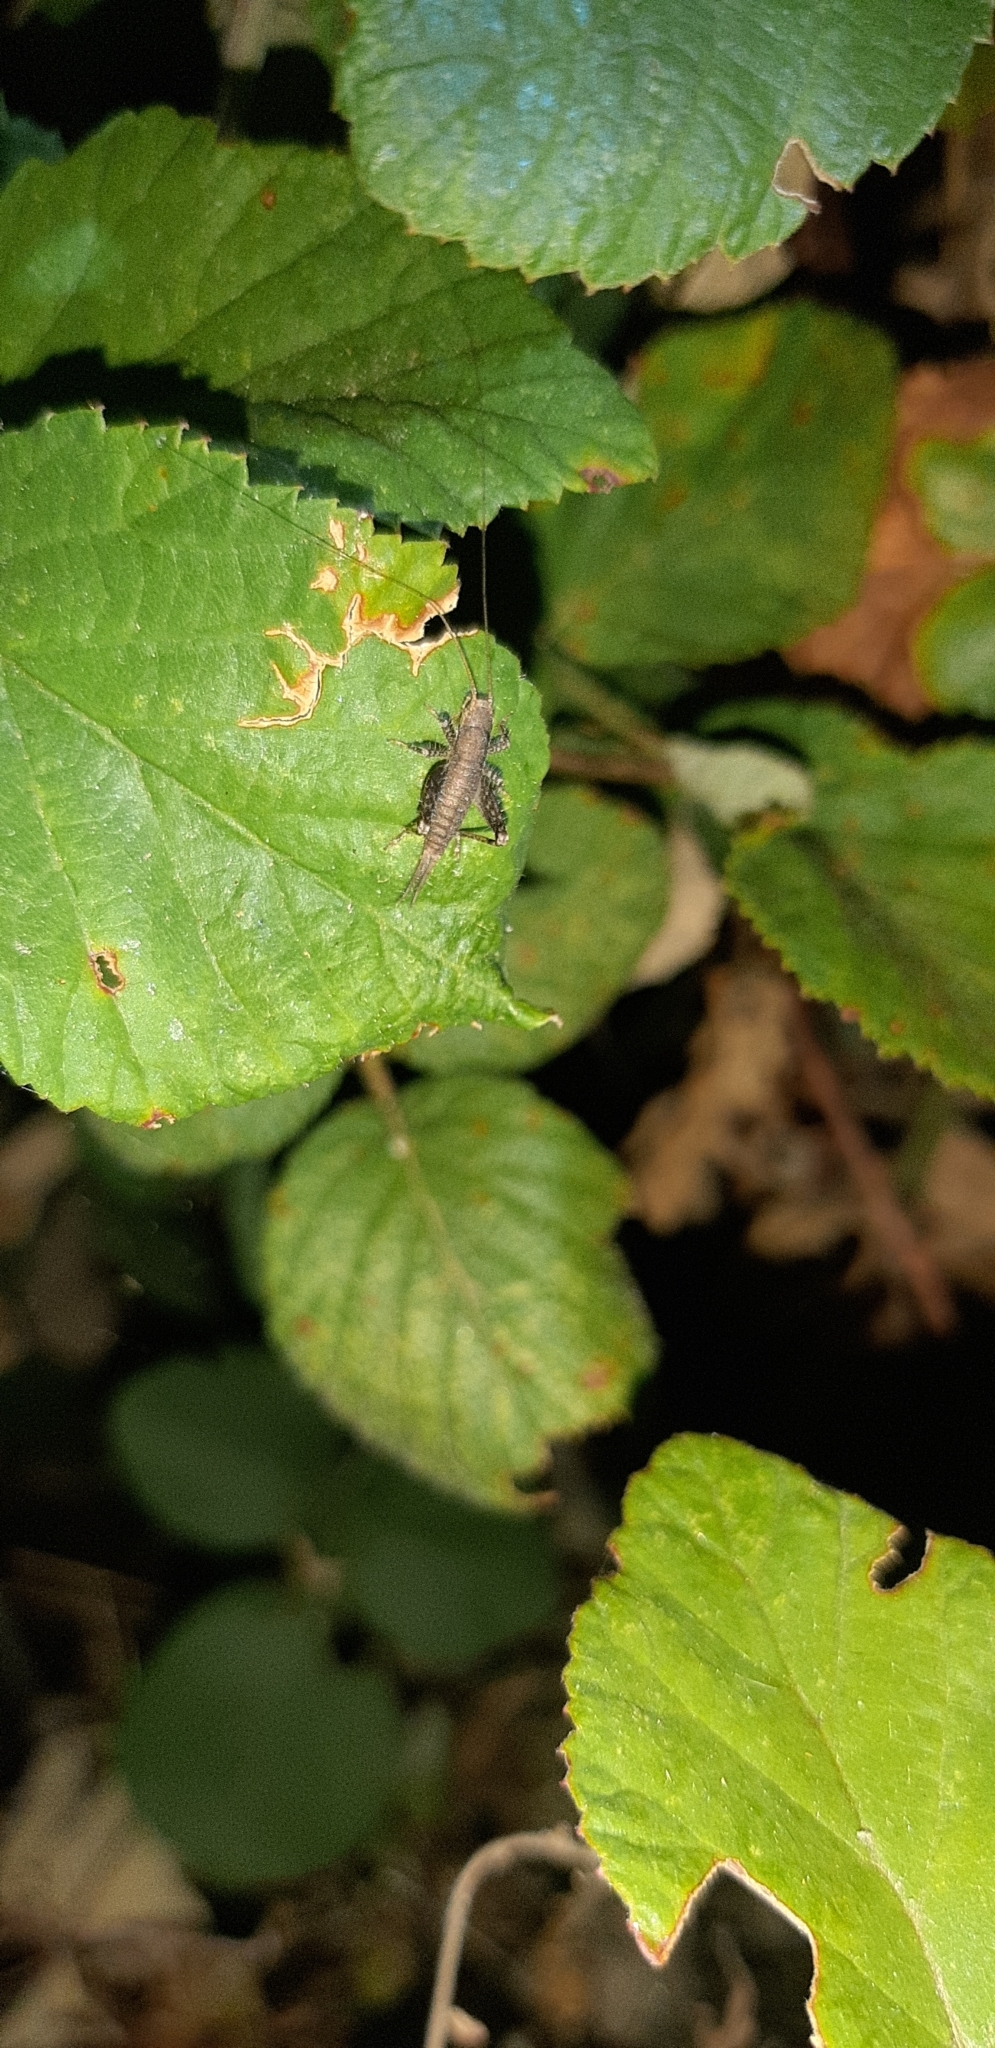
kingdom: Animalia
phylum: Arthropoda
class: Insecta
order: Orthoptera
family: Mogoplistidae
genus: Arachnocephalus
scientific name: Arachnocephalus vestitus
